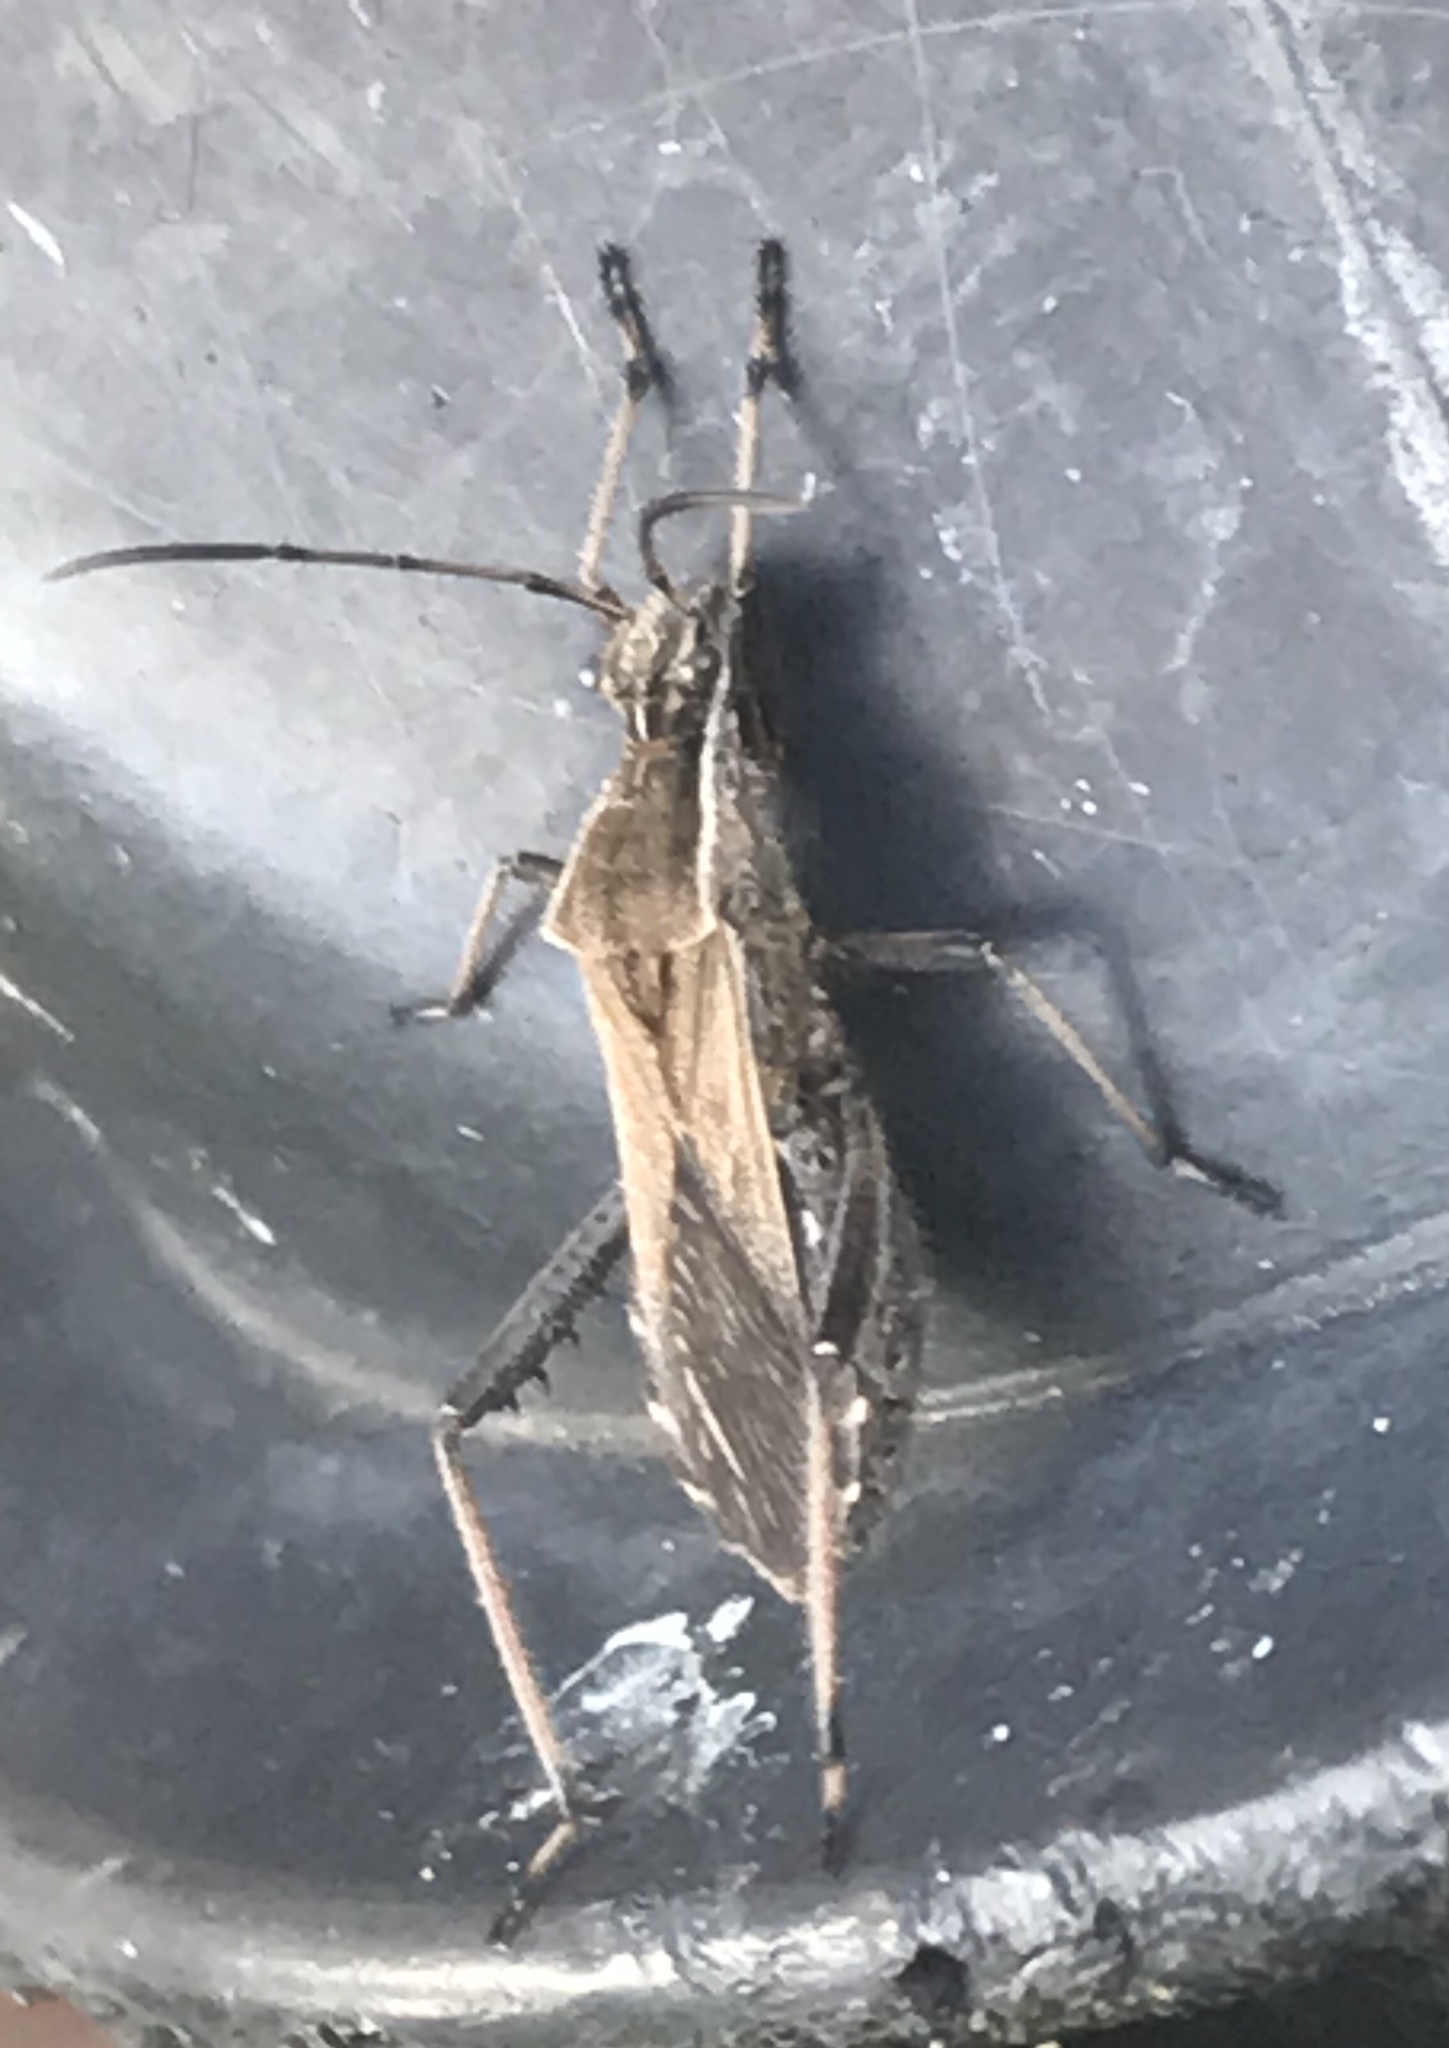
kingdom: Animalia
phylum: Arthropoda
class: Insecta
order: Hemiptera
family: Alydidae
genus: Alydus
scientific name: Alydus pilosulus
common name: Broad-headed bug
